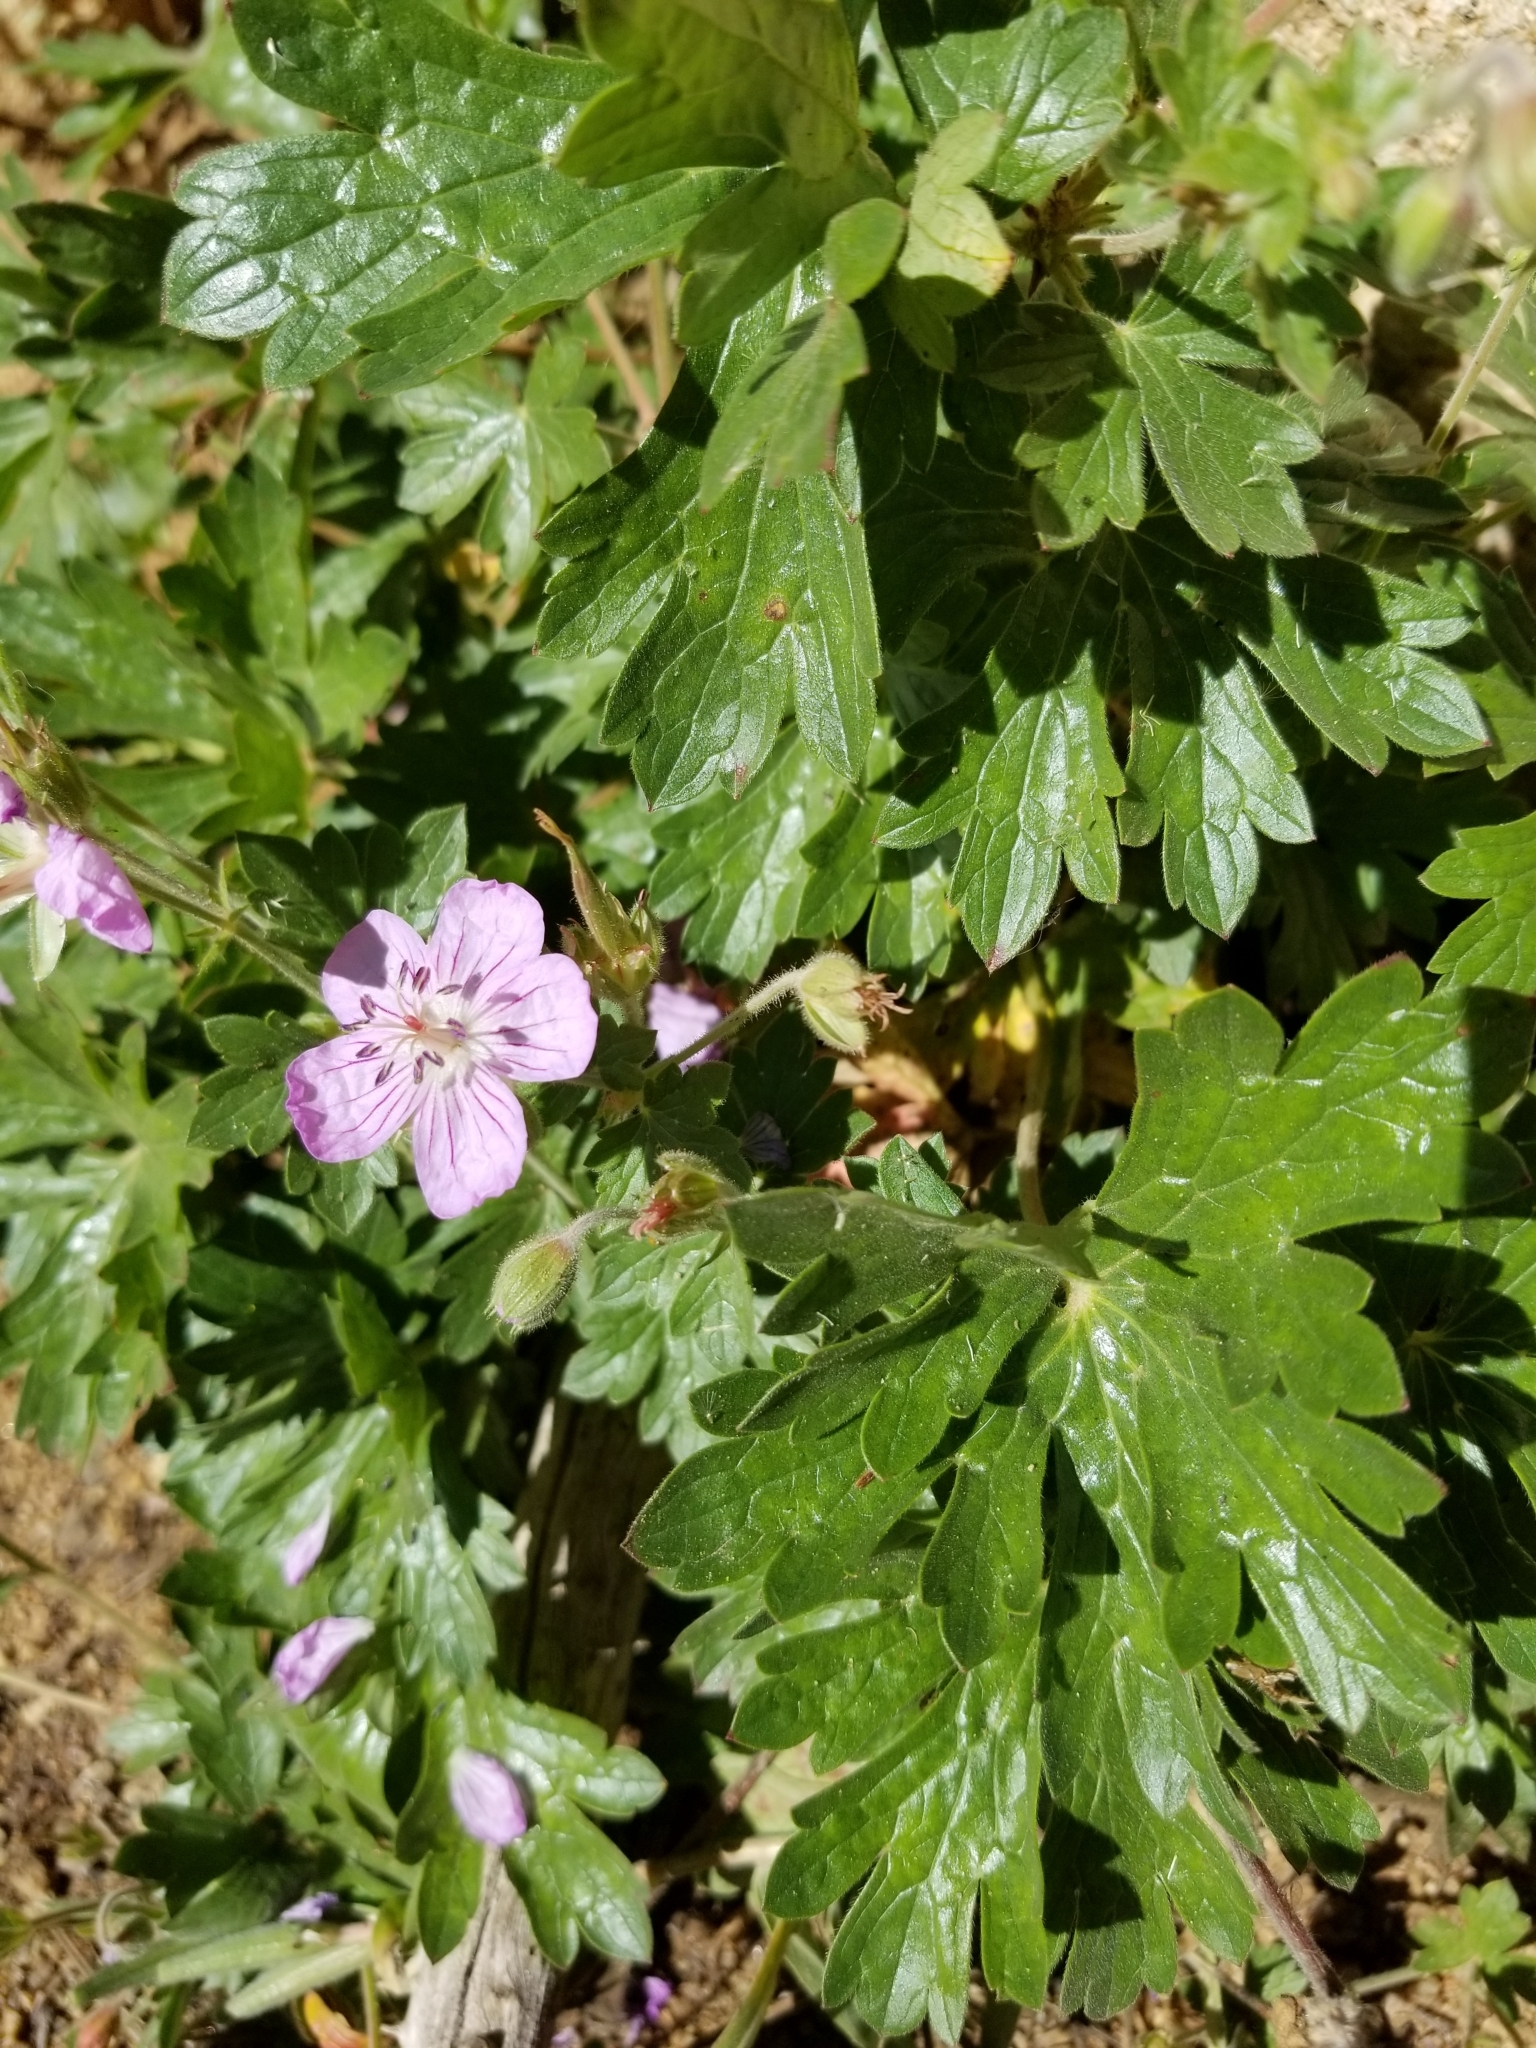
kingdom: Plantae
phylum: Tracheophyta
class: Magnoliopsida
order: Geraniales
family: Geraniaceae
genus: Geranium
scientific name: Geranium richardsonii
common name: Richardson's crane's-bill
